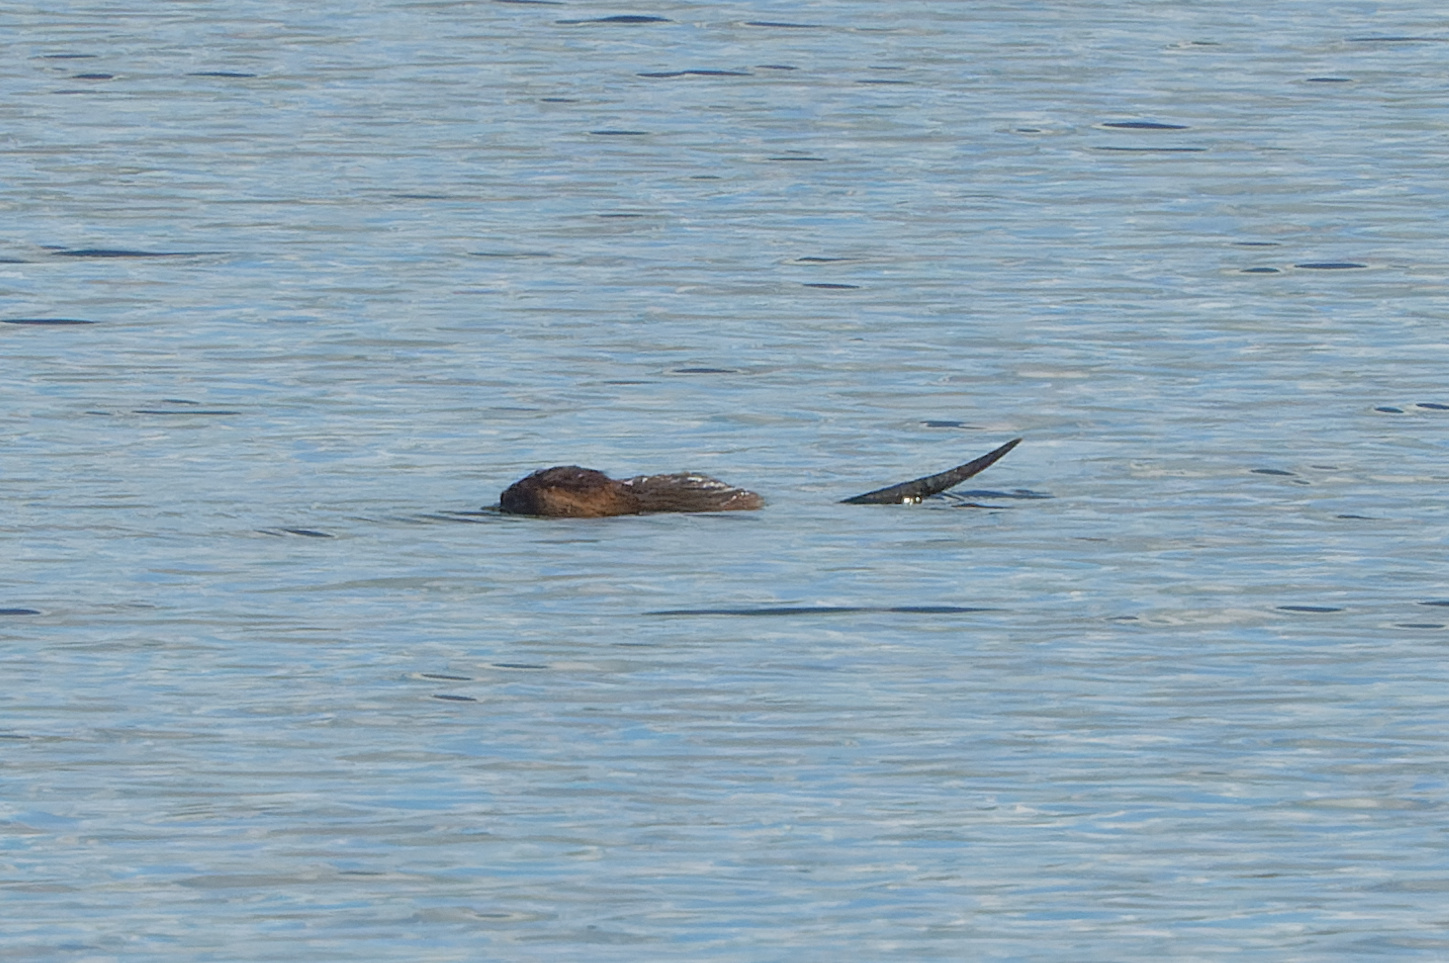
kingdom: Animalia
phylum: Chordata
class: Mammalia
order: Rodentia
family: Cricetidae
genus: Ondatra
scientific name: Ondatra zibethicus
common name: Muskrat
